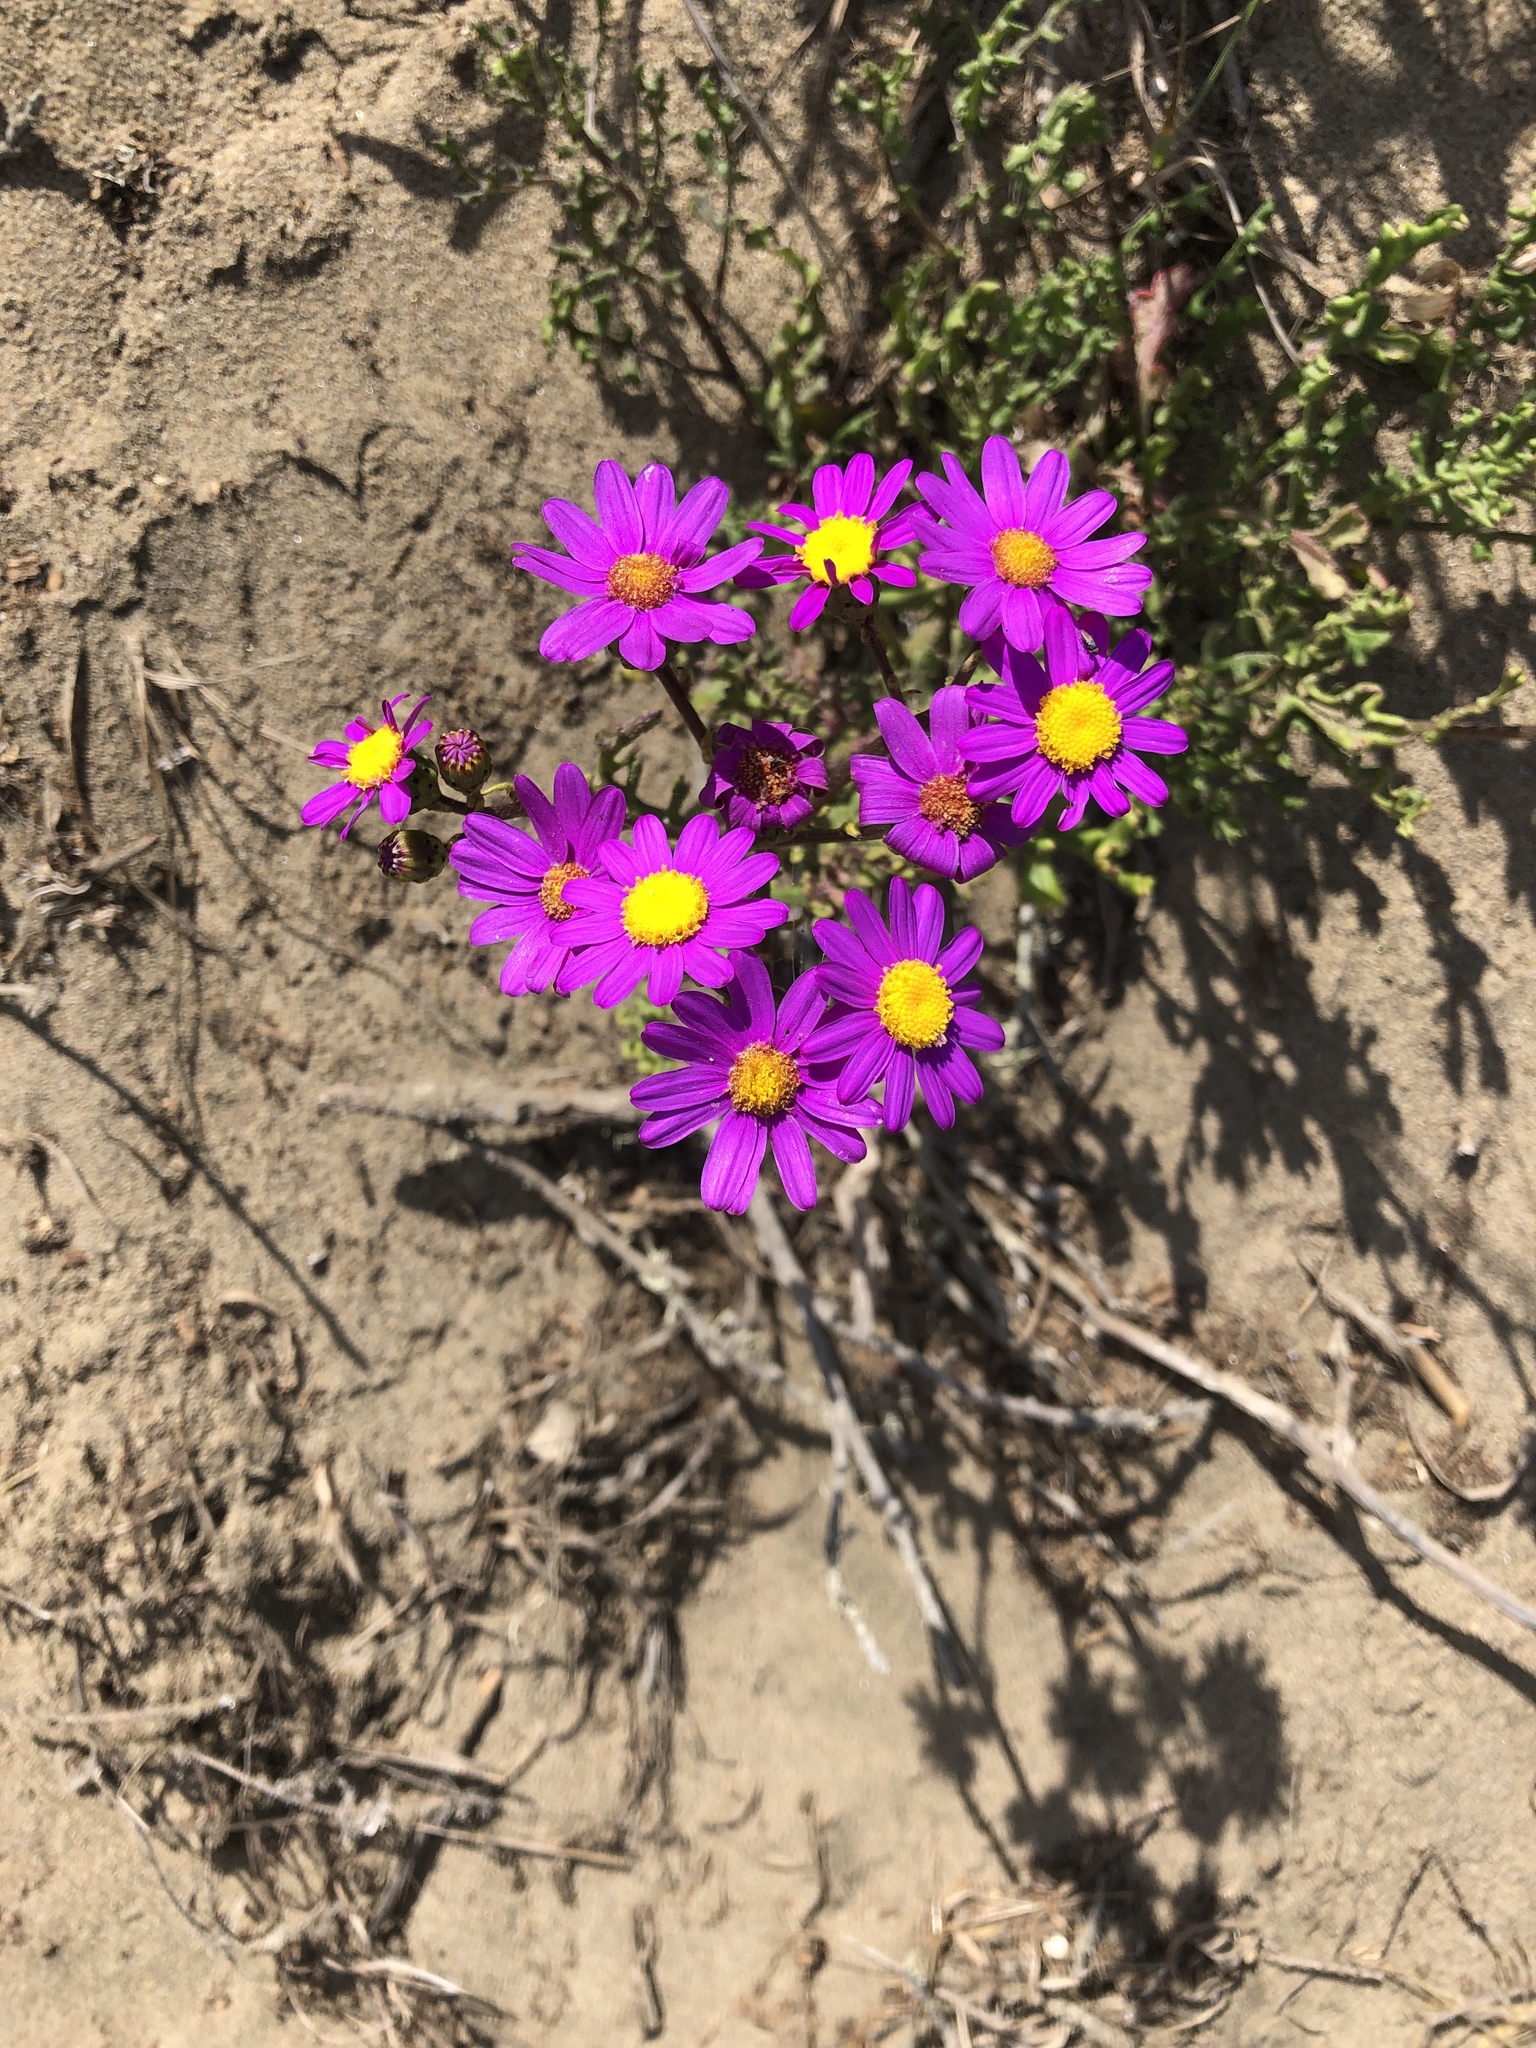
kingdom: Plantae
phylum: Tracheophyta
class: Magnoliopsida
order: Asterales
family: Asteraceae
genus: Senecio
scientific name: Senecio elegans
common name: Purple groundsel
